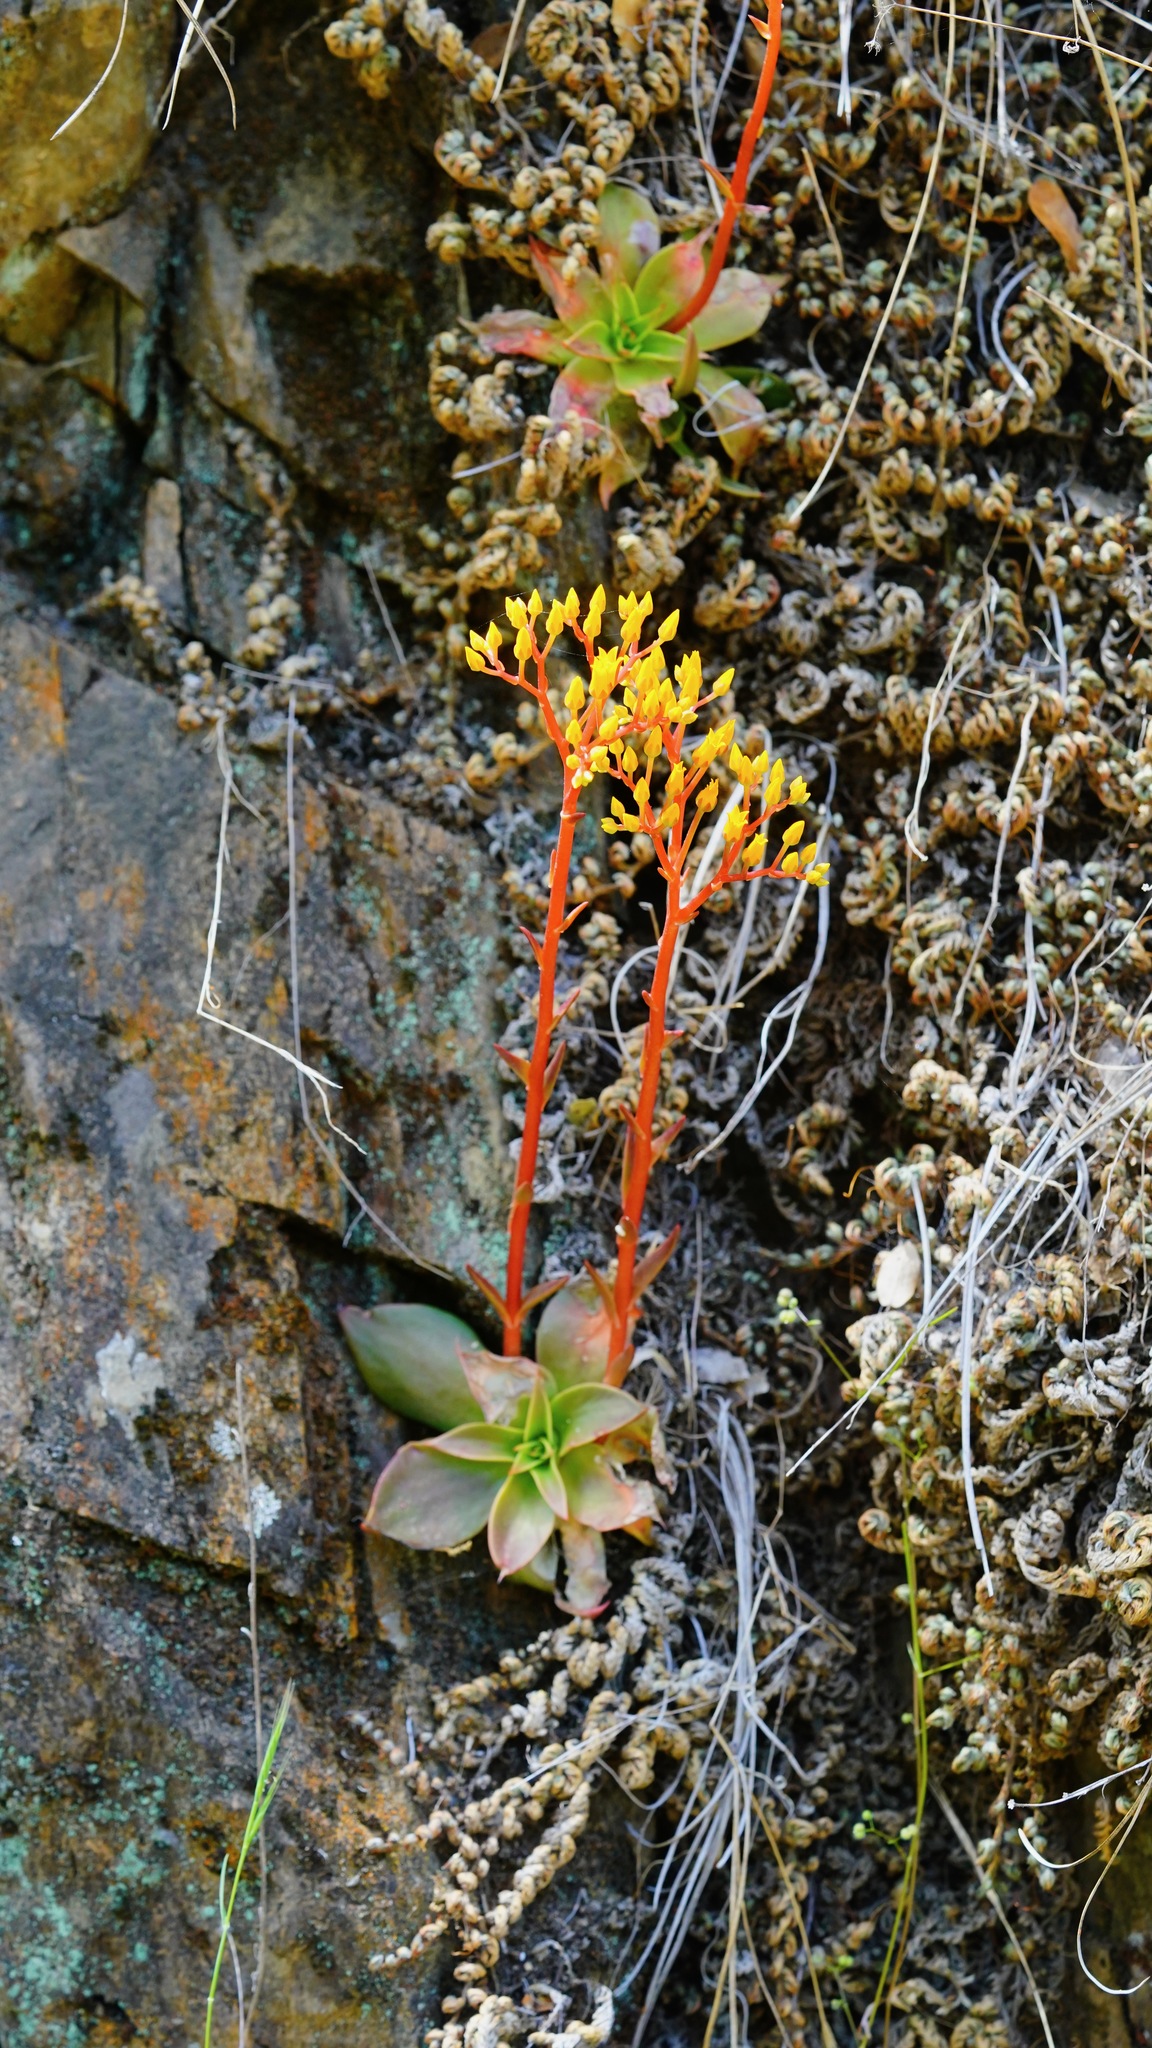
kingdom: Plantae
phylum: Tracheophyta
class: Magnoliopsida
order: Saxifragales
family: Crassulaceae
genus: Dudleya
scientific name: Dudleya cymosa
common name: Canyon dudleya
